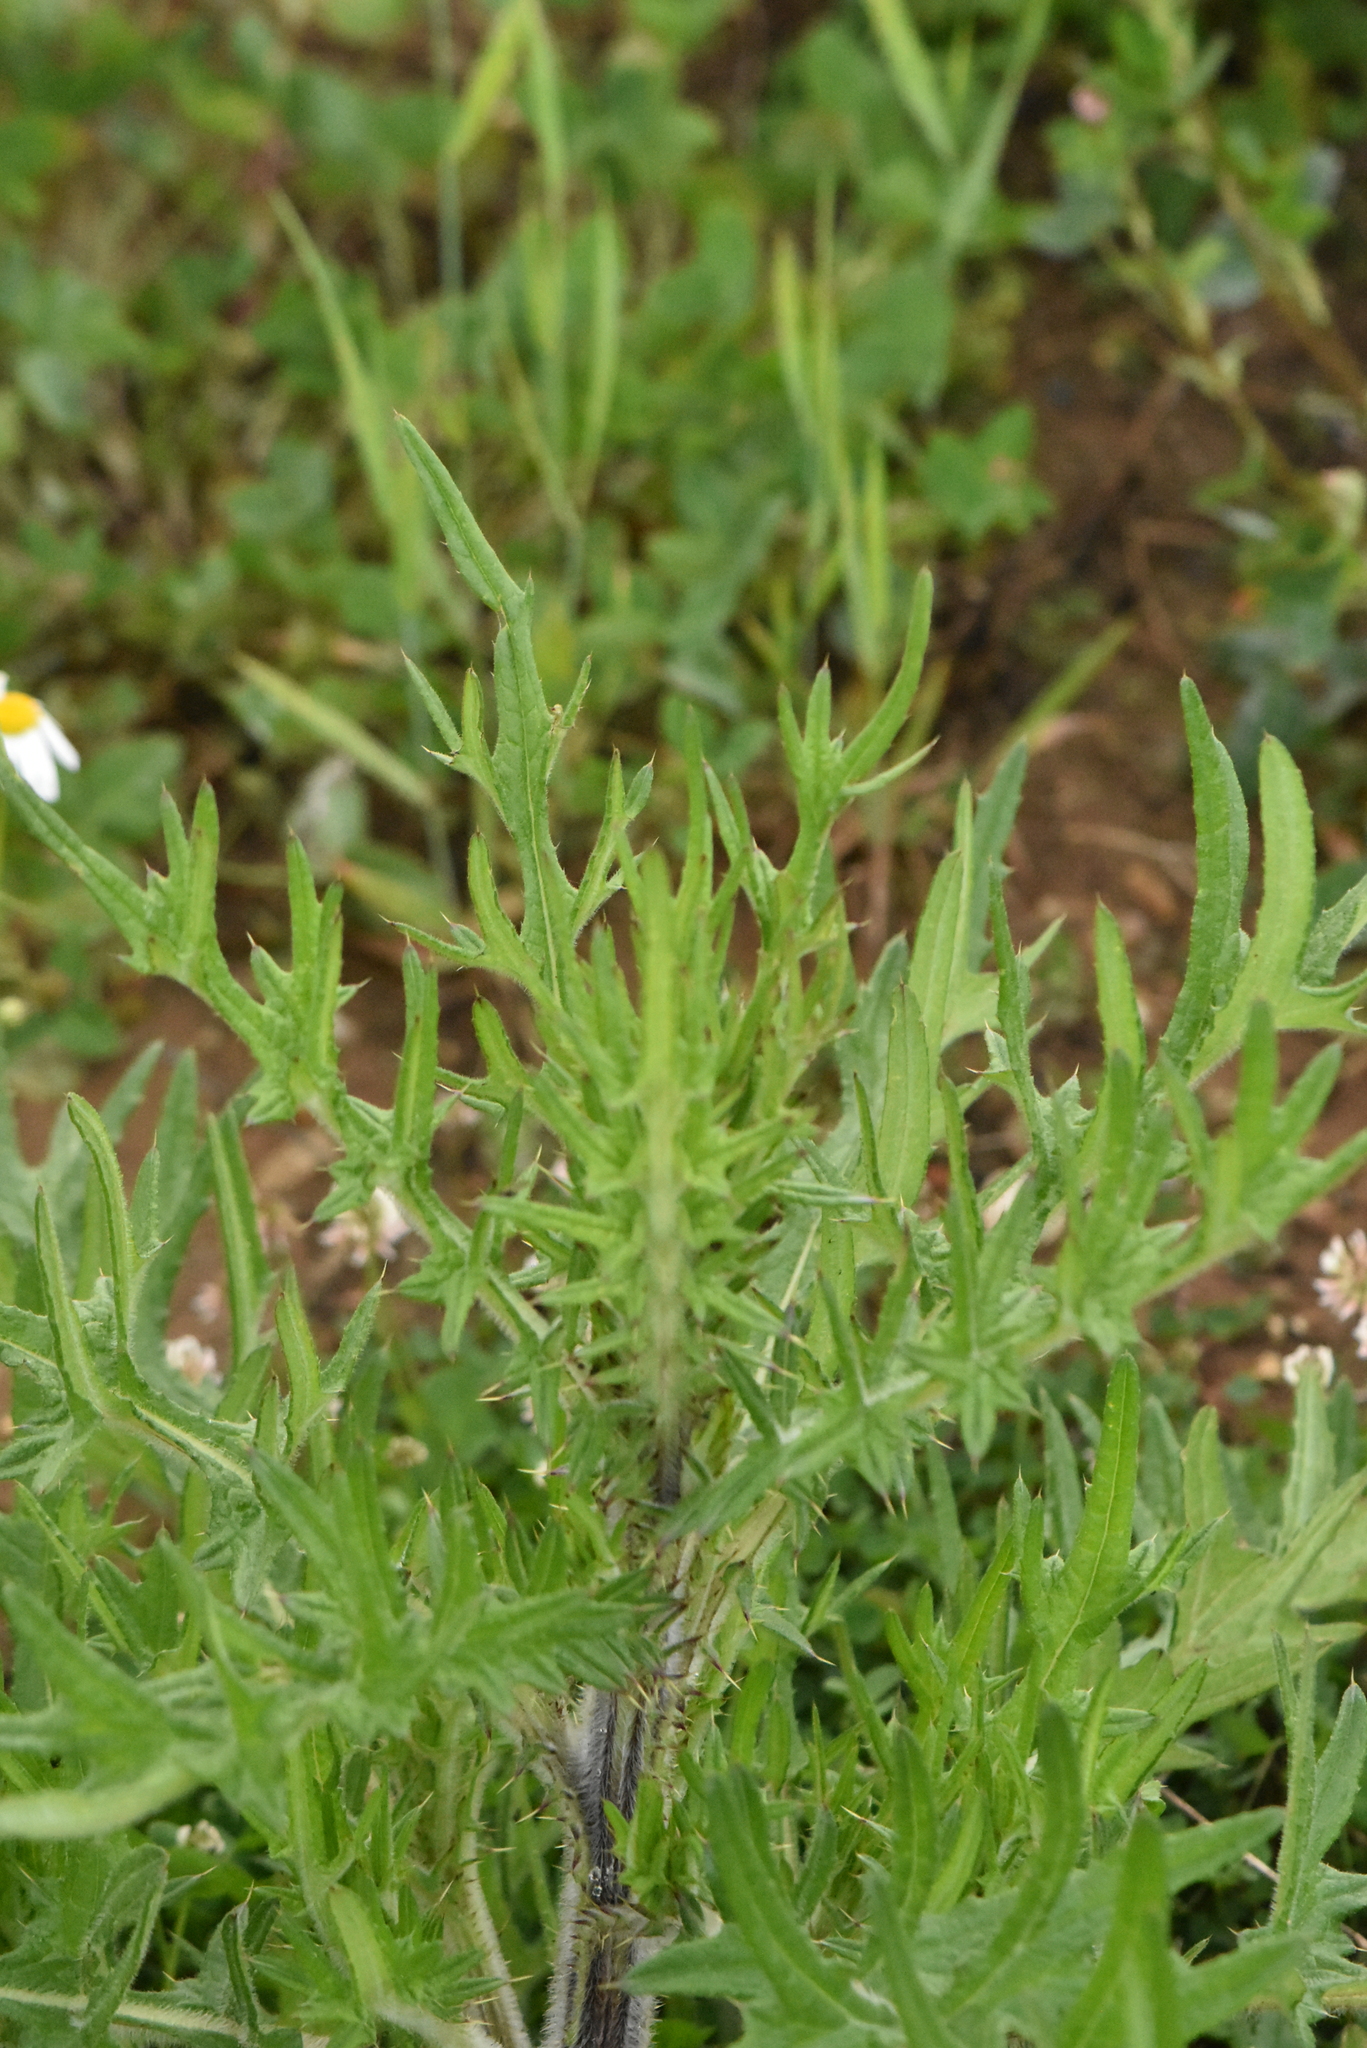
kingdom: Plantae
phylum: Tracheophyta
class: Magnoliopsida
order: Asterales
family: Asteraceae
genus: Cirsium
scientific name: Cirsium vulgare
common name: Bull thistle
